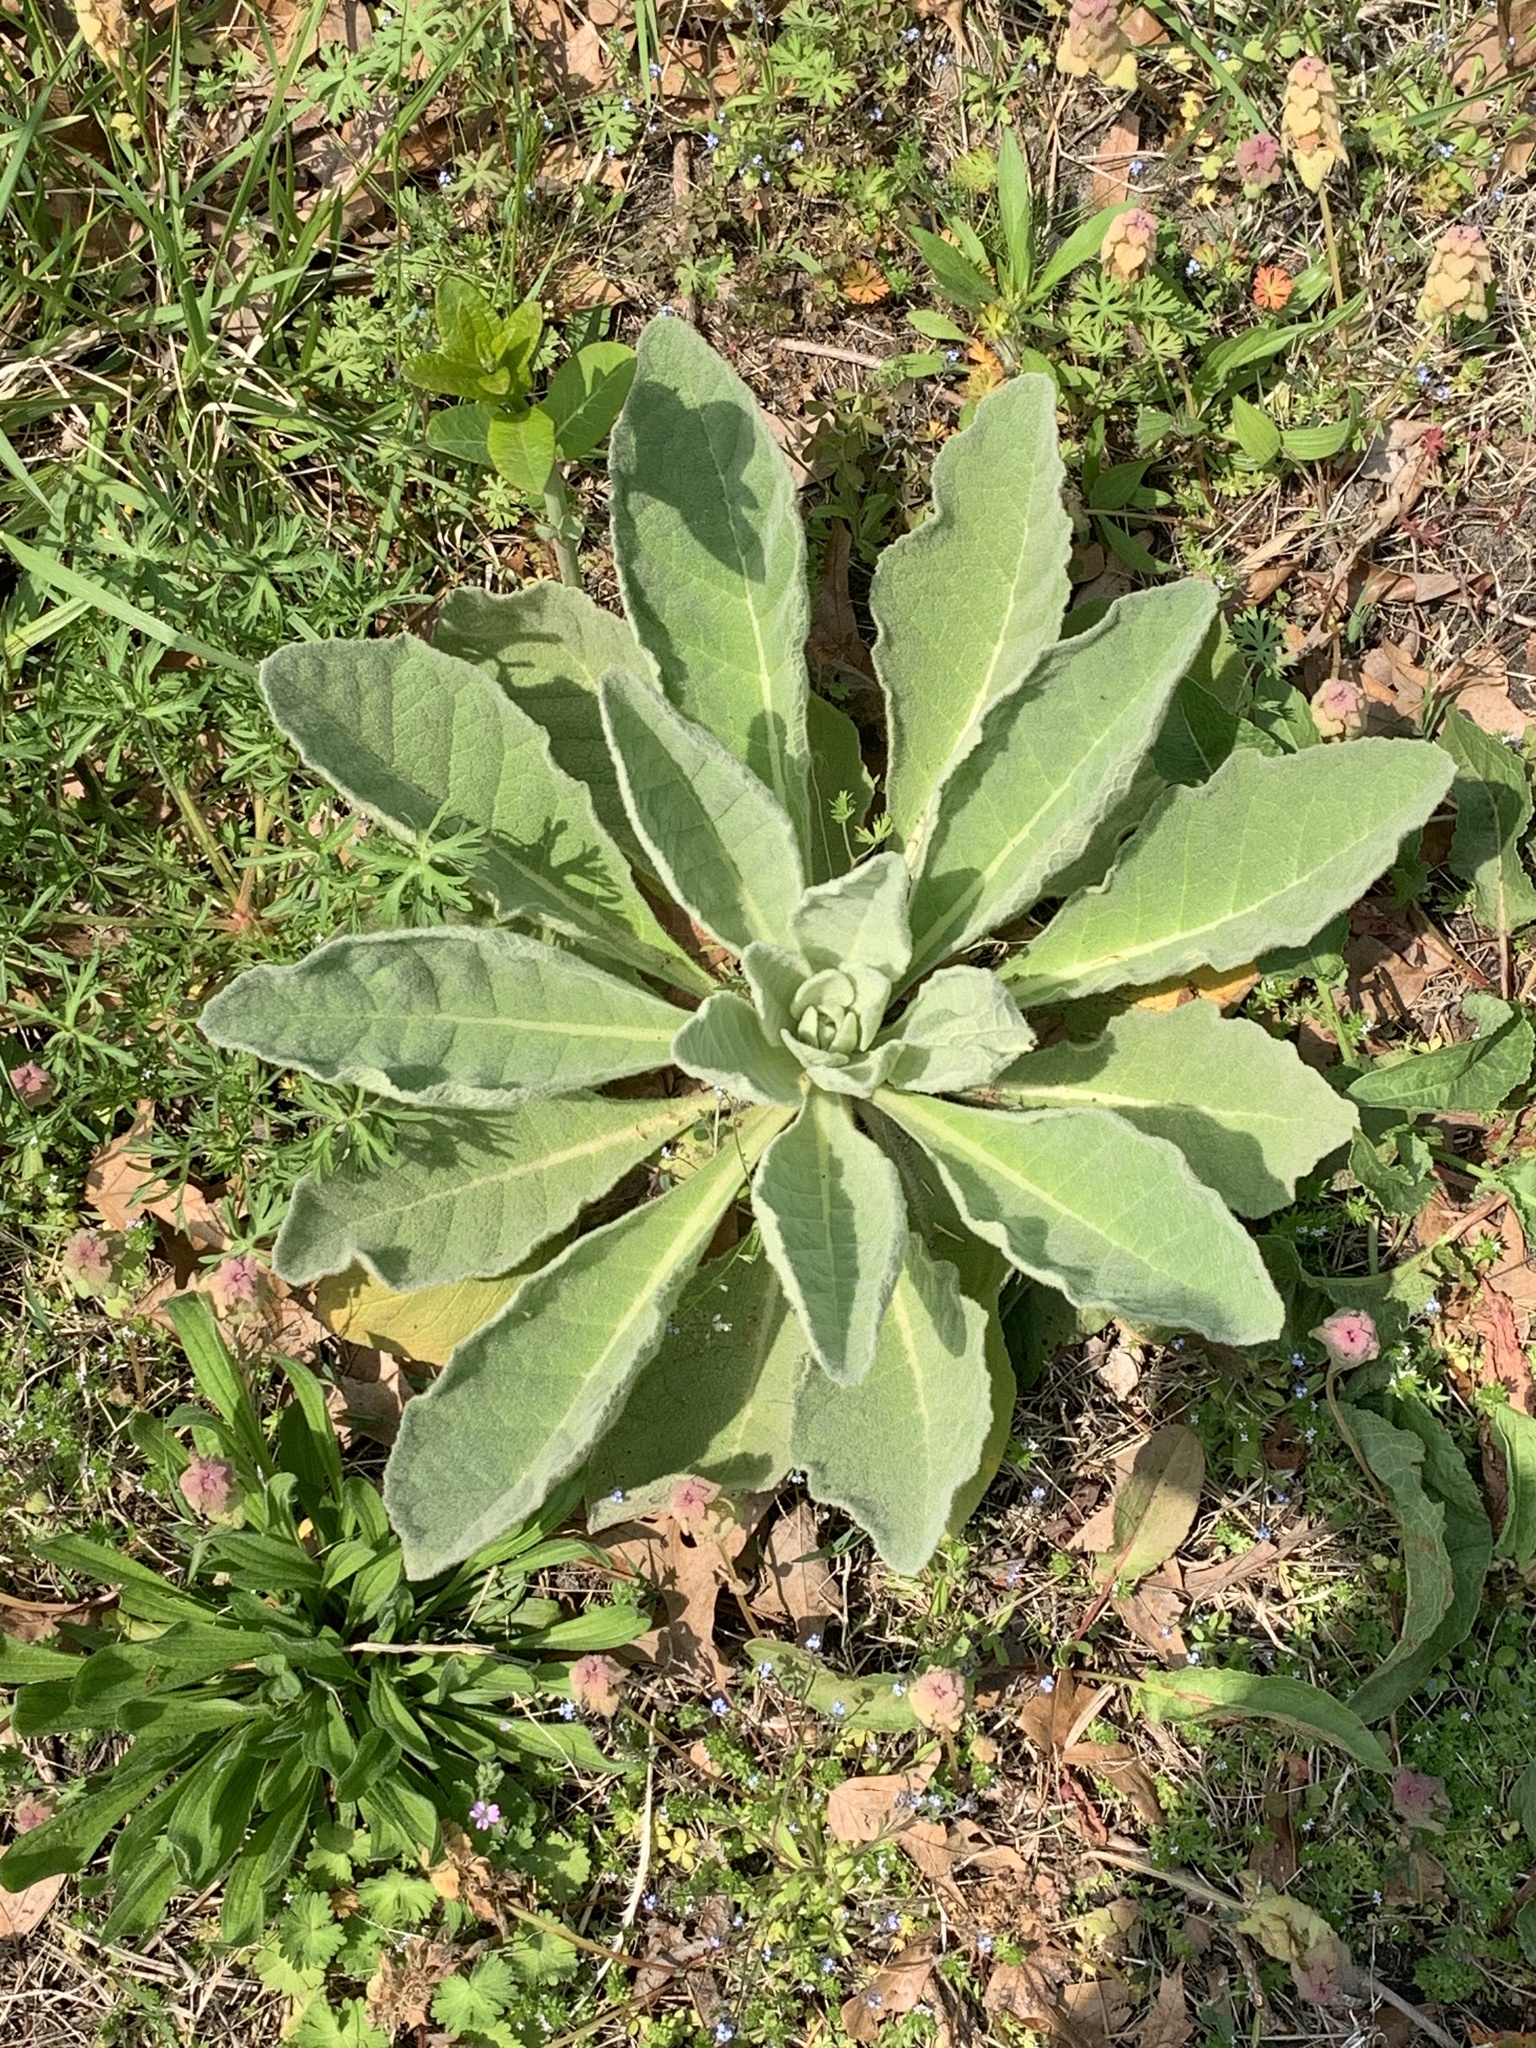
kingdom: Plantae
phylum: Tracheophyta
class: Magnoliopsida
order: Lamiales
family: Scrophulariaceae
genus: Verbascum
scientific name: Verbascum thapsus
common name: Common mullein
